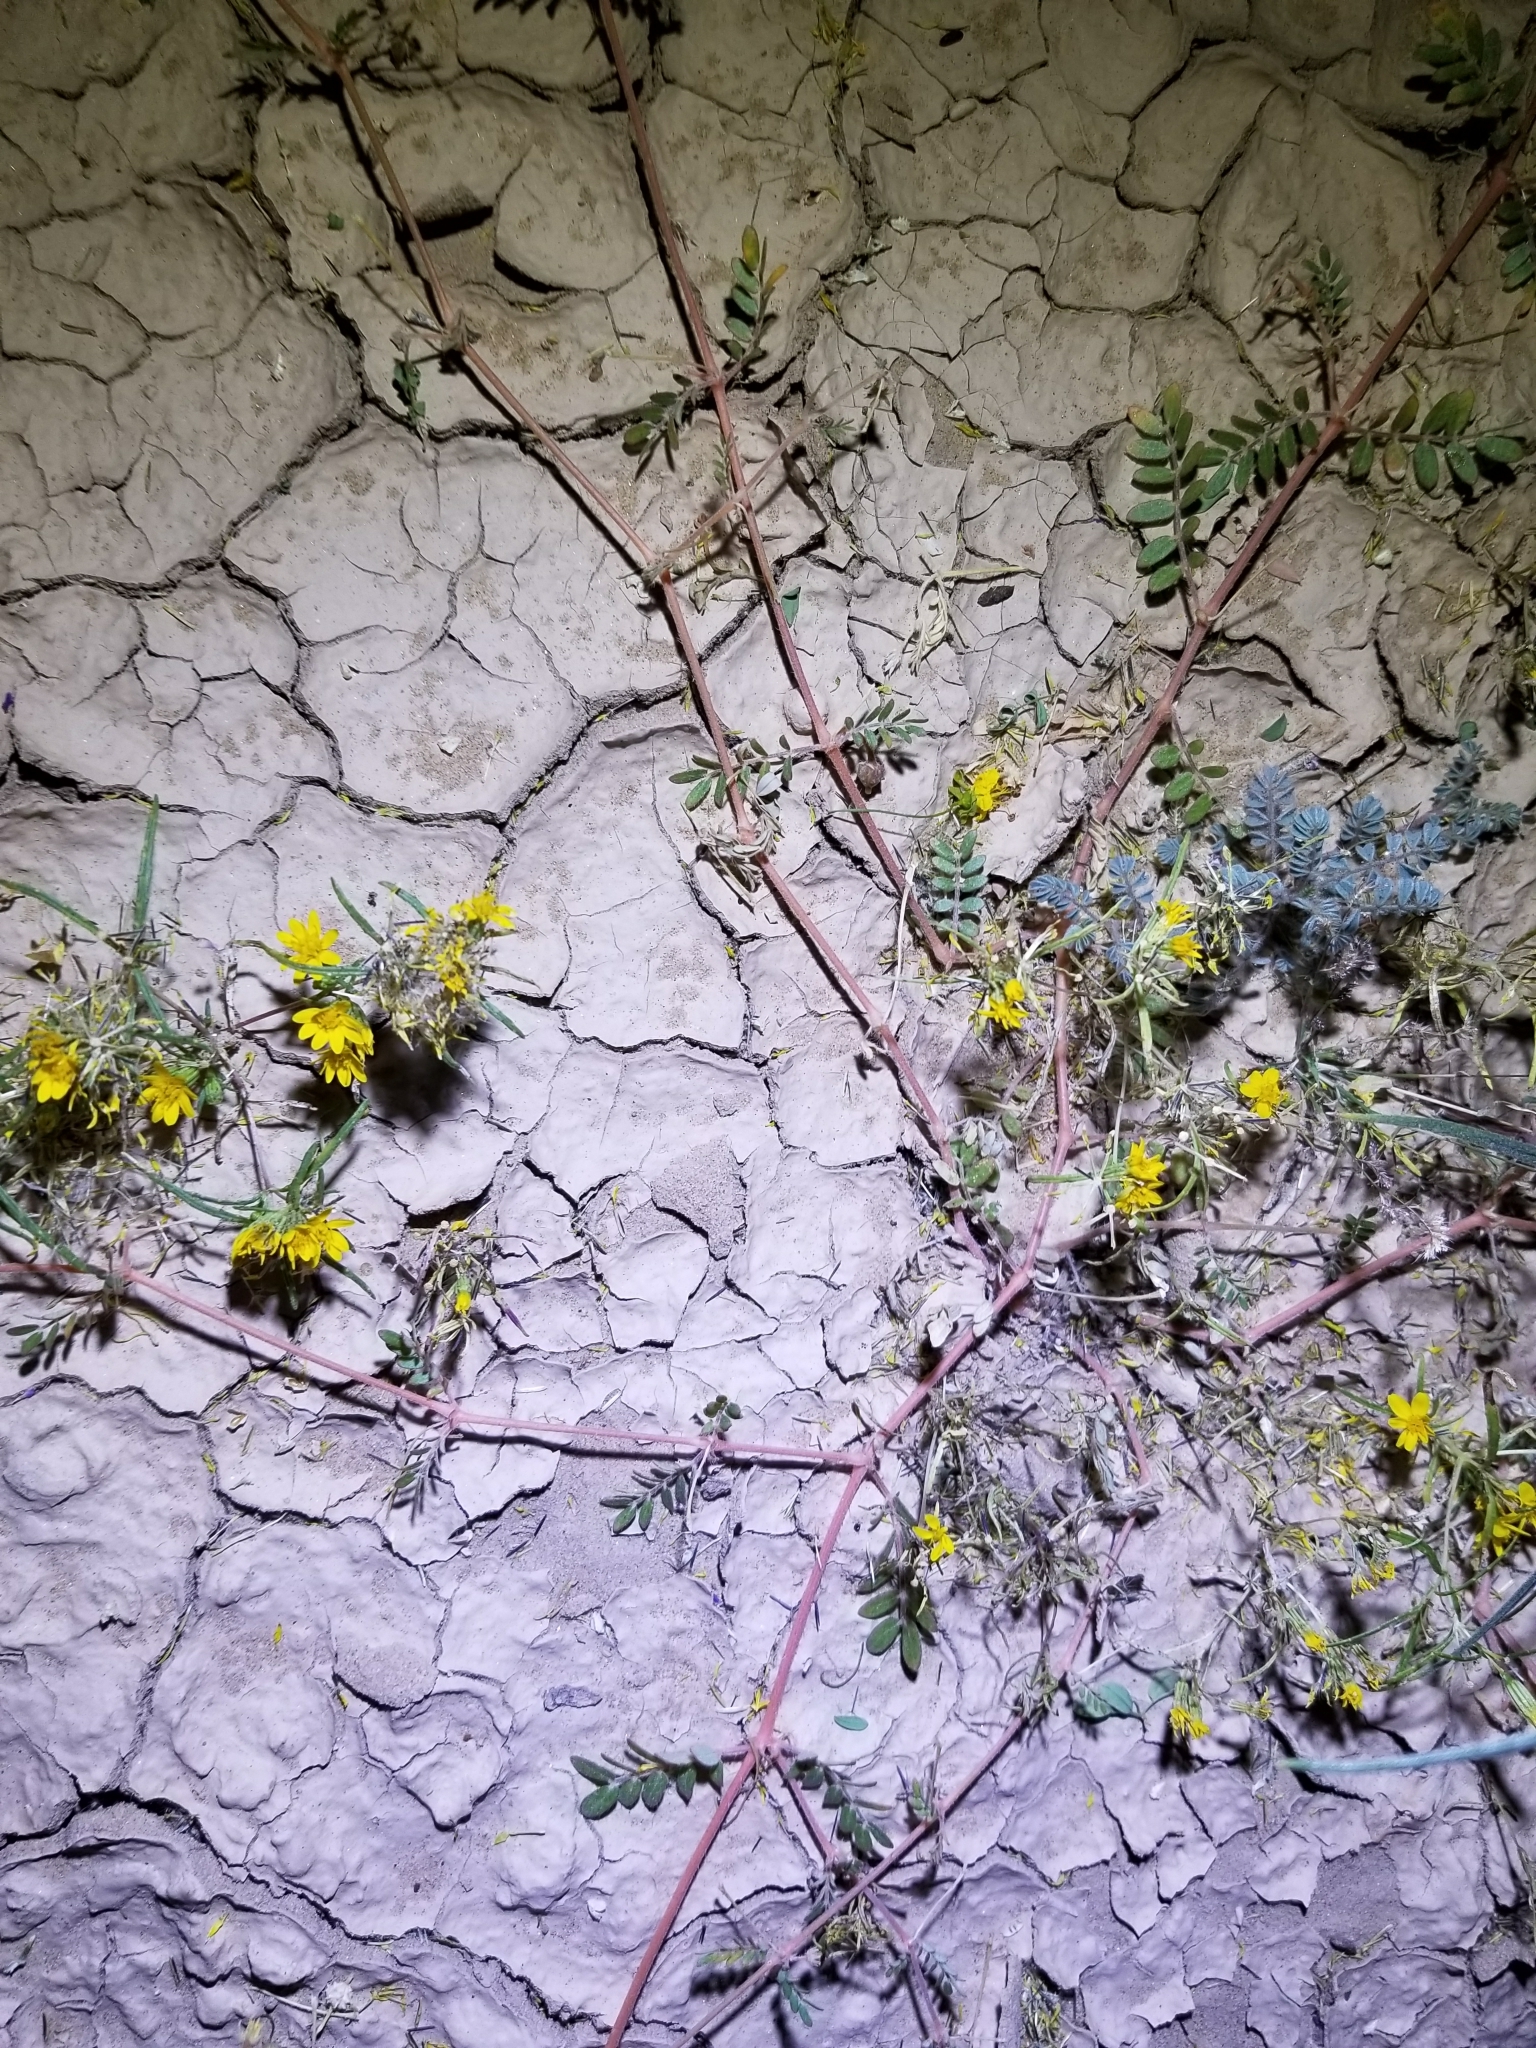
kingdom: Plantae
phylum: Tracheophyta
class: Magnoliopsida
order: Zygophyllales
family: Zygophyllaceae
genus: Kallstroemia
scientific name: Kallstroemia californica
